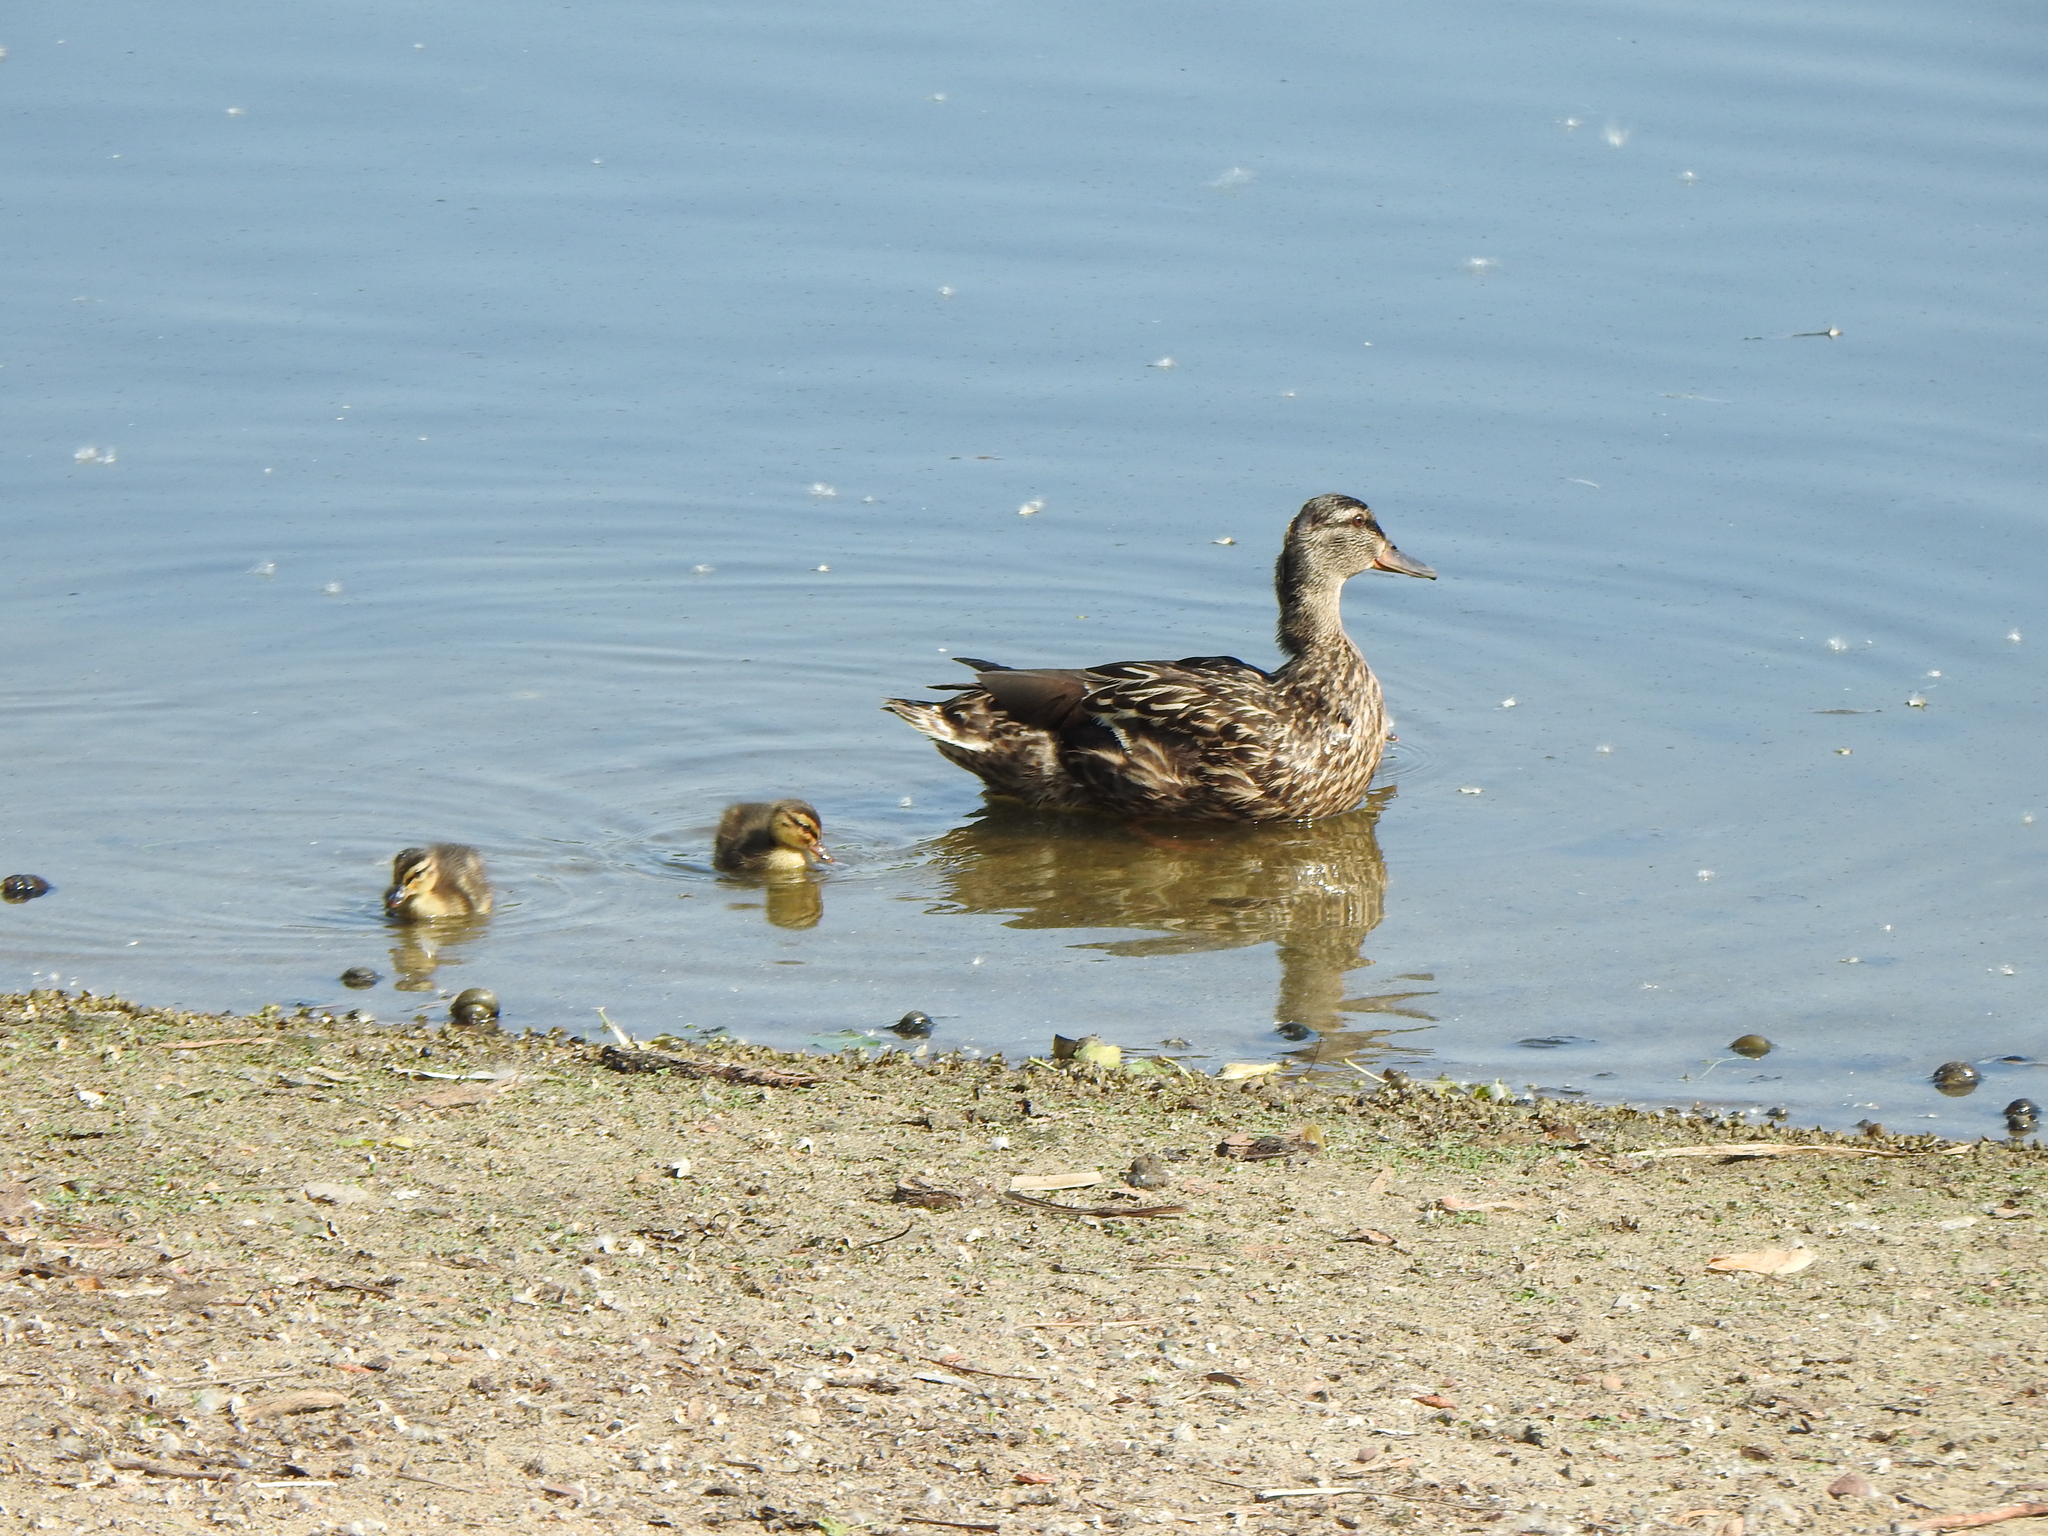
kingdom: Animalia
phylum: Chordata
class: Aves
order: Anseriformes
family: Anatidae
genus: Anas
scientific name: Anas platyrhynchos
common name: Mallard
